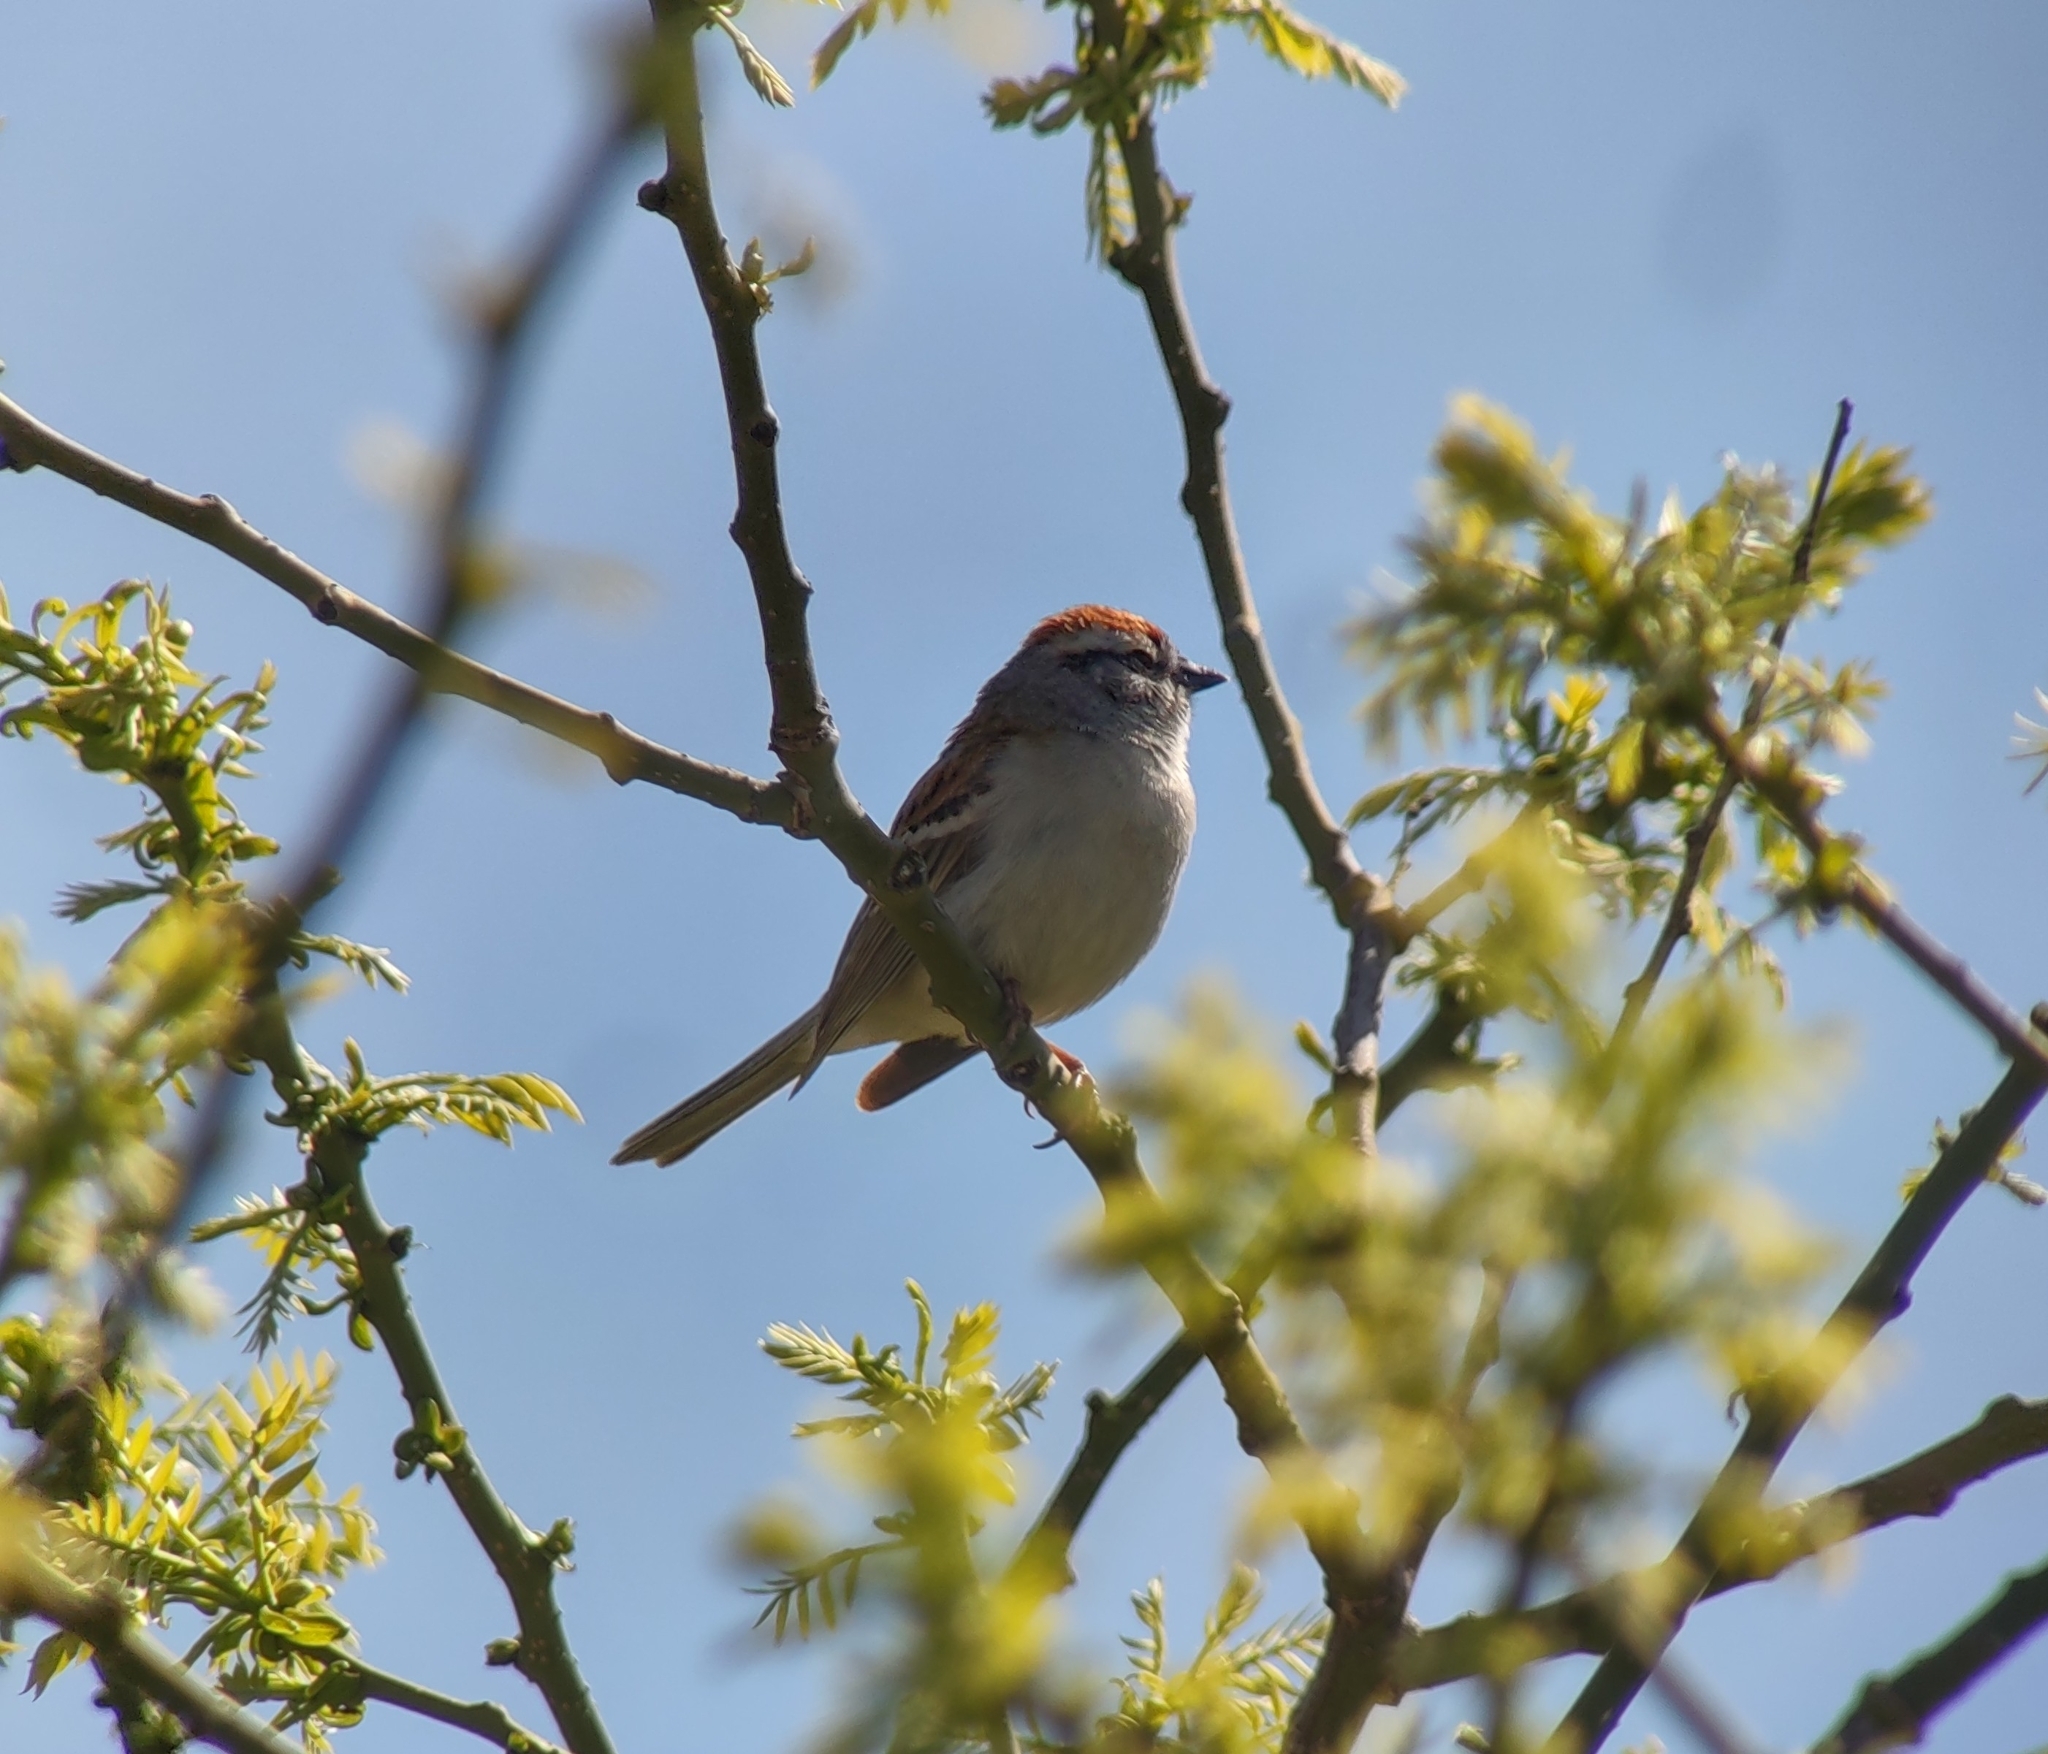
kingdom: Animalia
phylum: Chordata
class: Aves
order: Passeriformes
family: Passerellidae
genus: Spizella
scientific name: Spizella passerina
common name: Chipping sparrow
